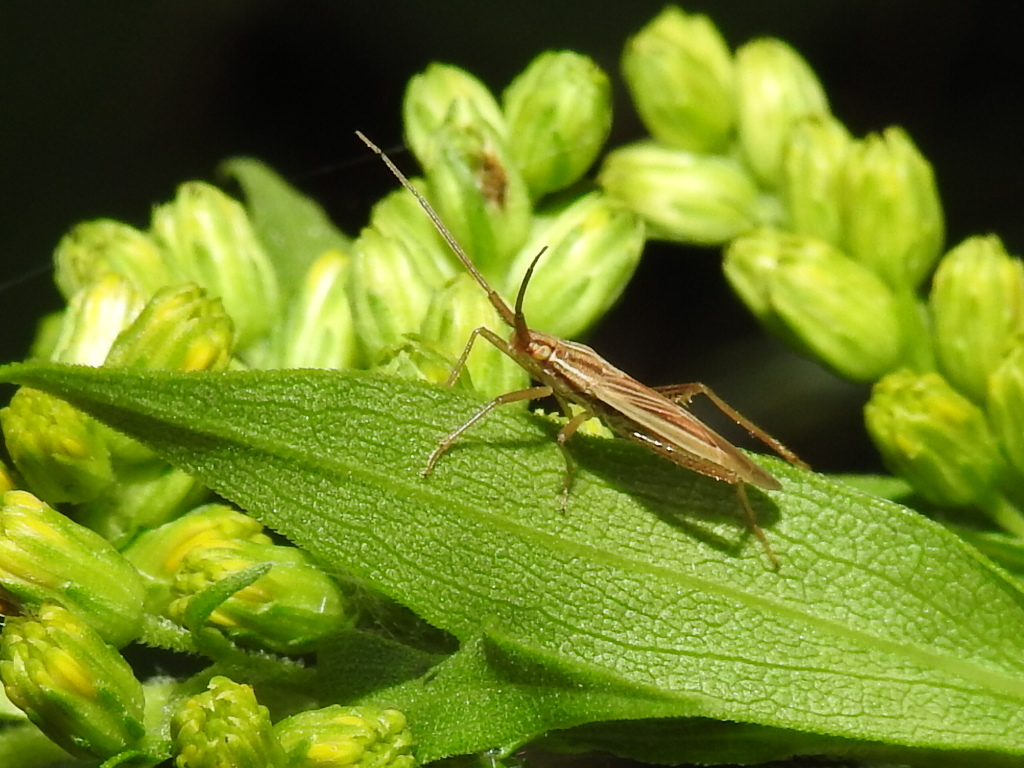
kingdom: Animalia
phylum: Arthropoda
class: Insecta
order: Hemiptera
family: Miridae
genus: Stenodema
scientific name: Stenodema calcarata
